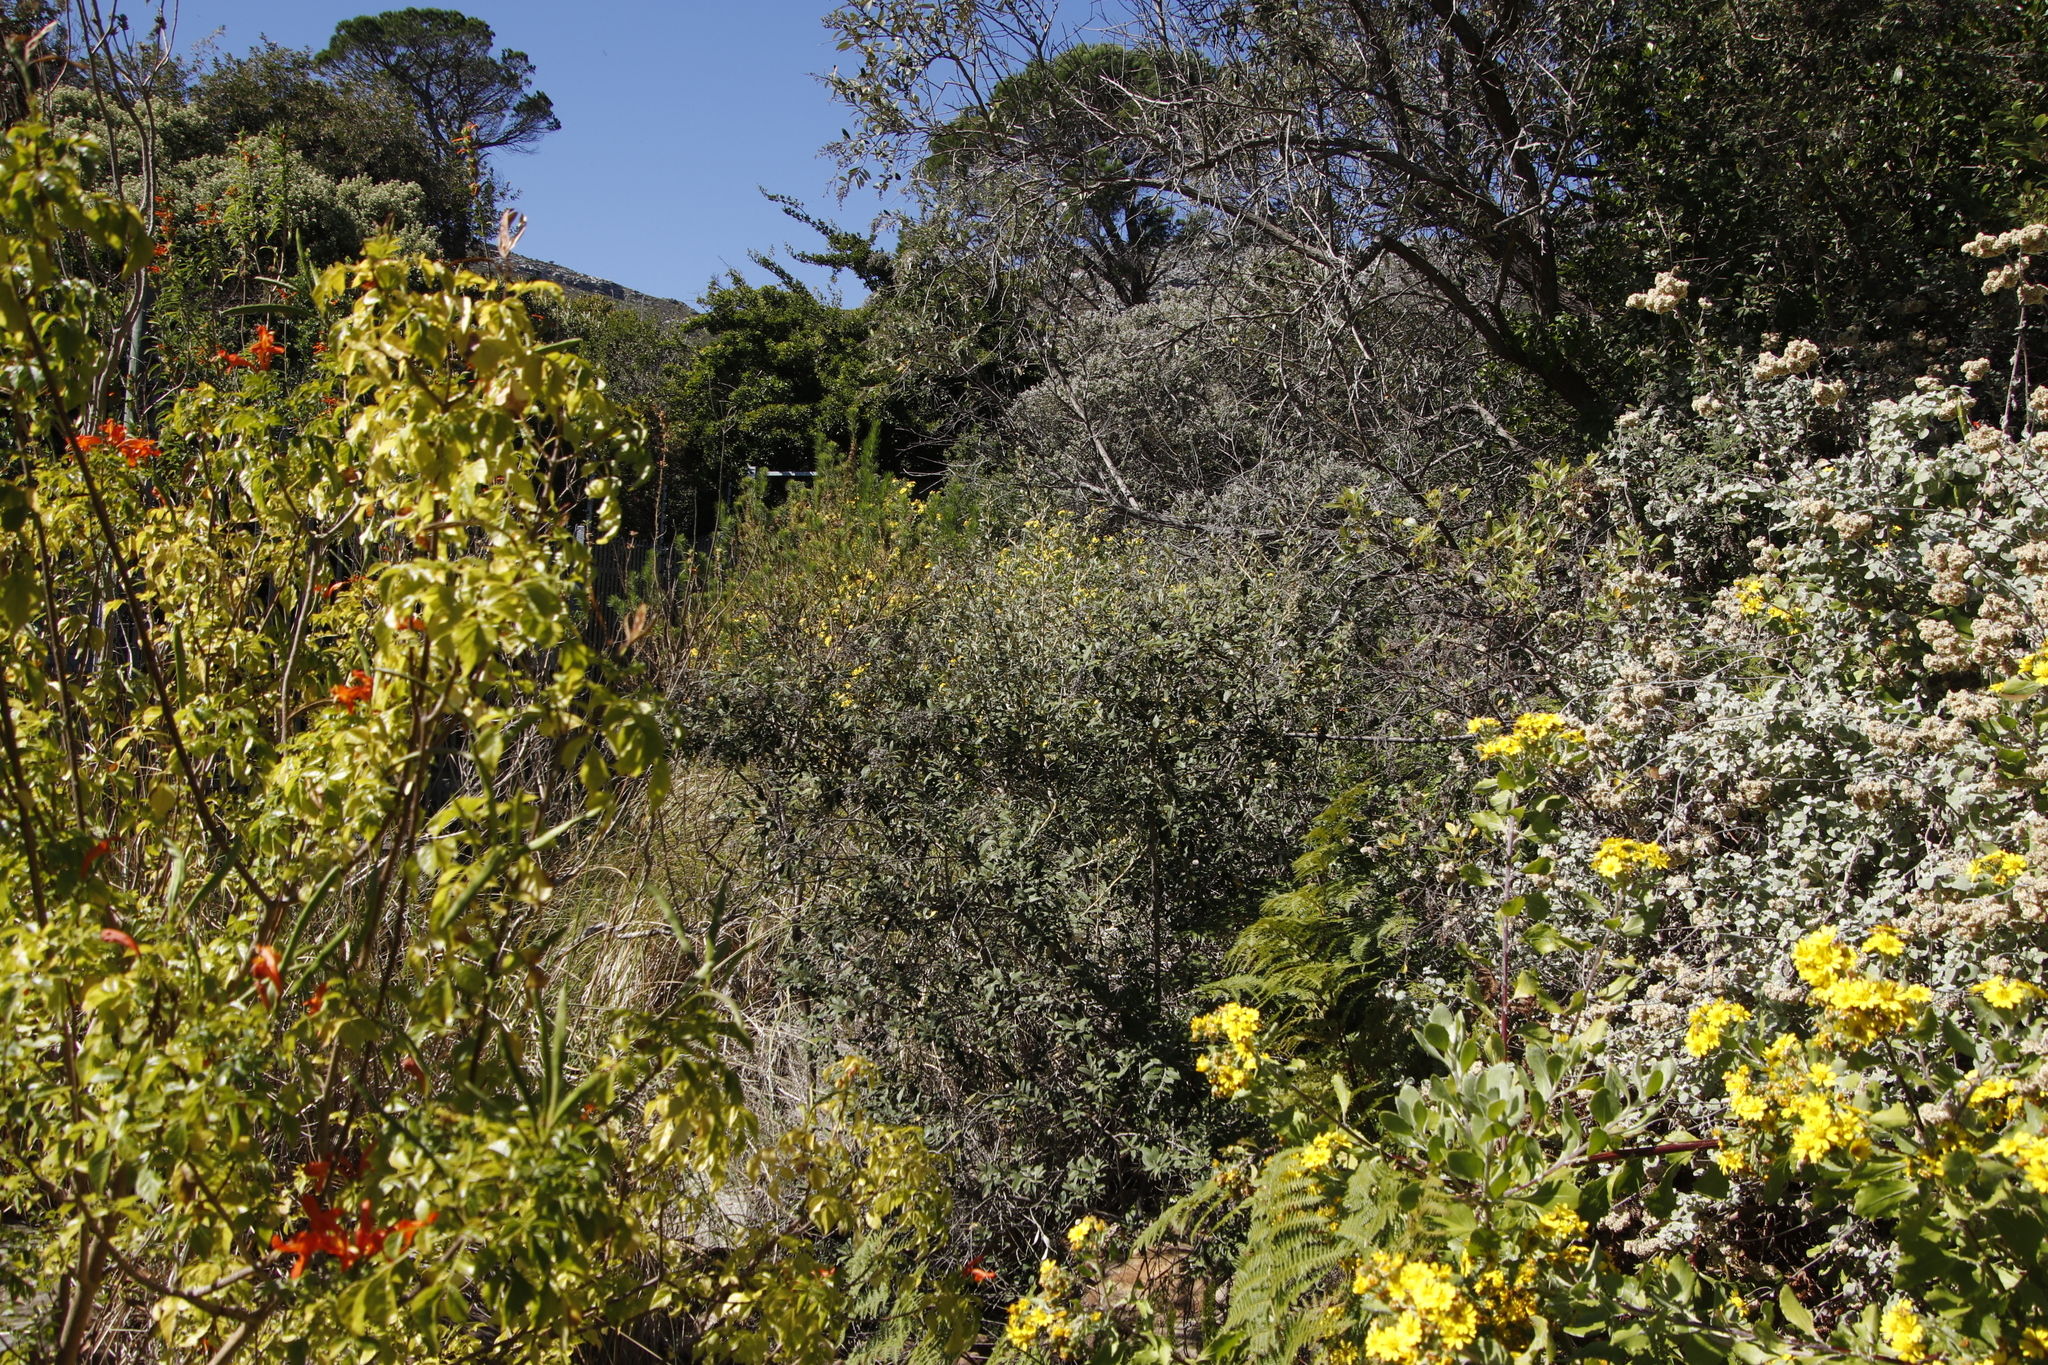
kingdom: Plantae
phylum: Tracheophyta
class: Magnoliopsida
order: Asterales
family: Asteraceae
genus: Tarchonanthus
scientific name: Tarchonanthus littoralis
